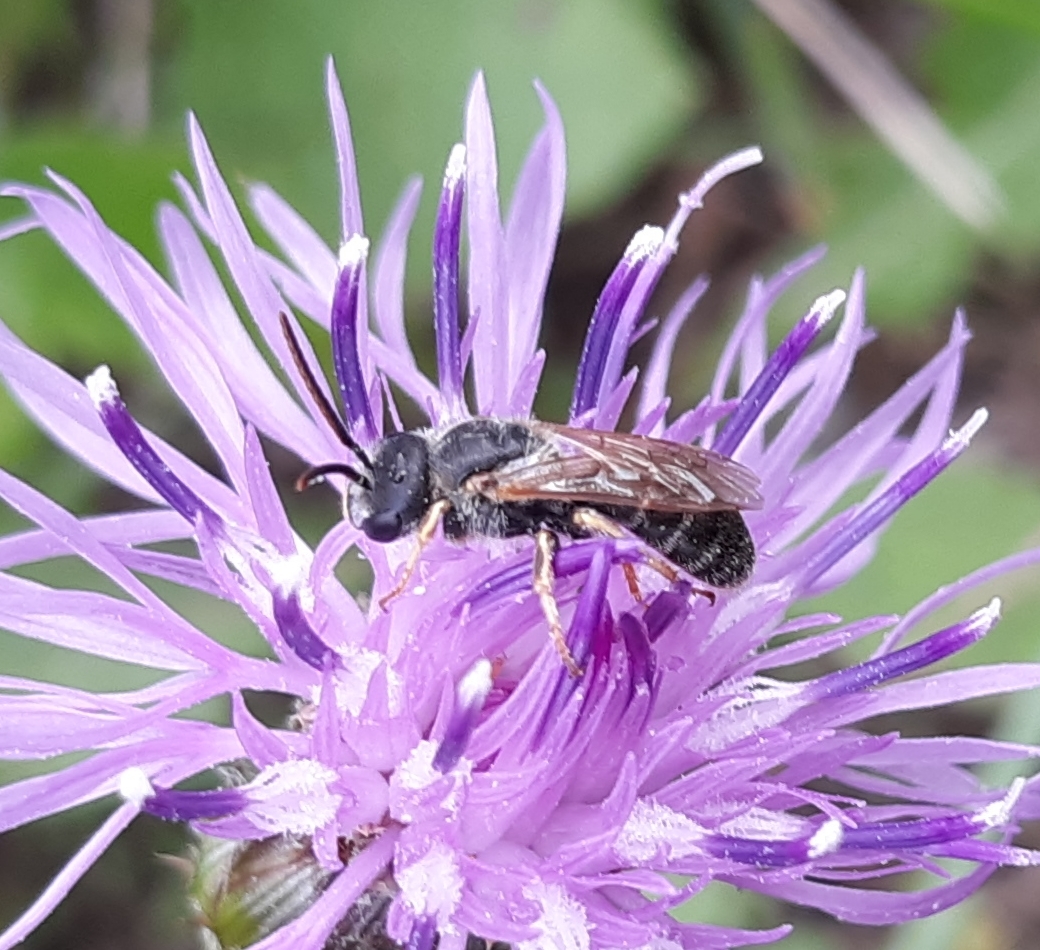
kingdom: Animalia
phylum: Arthropoda
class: Insecta
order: Hymenoptera
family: Halictidae
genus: Halictus
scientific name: Halictus ligatus
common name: Ligated furrow bee
